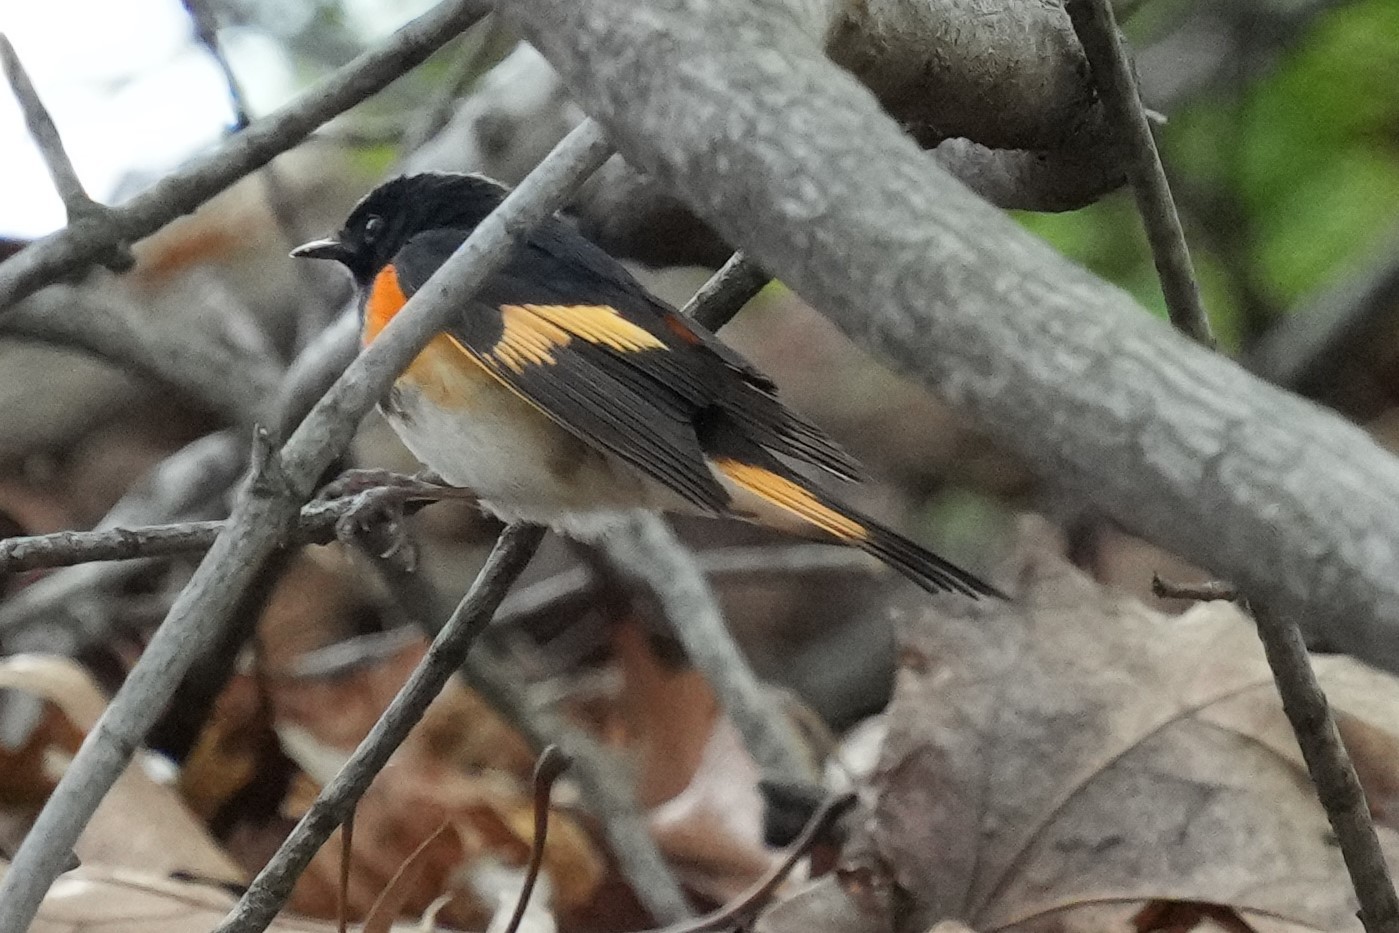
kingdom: Animalia
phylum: Chordata
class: Aves
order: Passeriformes
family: Parulidae
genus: Setophaga
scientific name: Setophaga ruticilla
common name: American redstart
